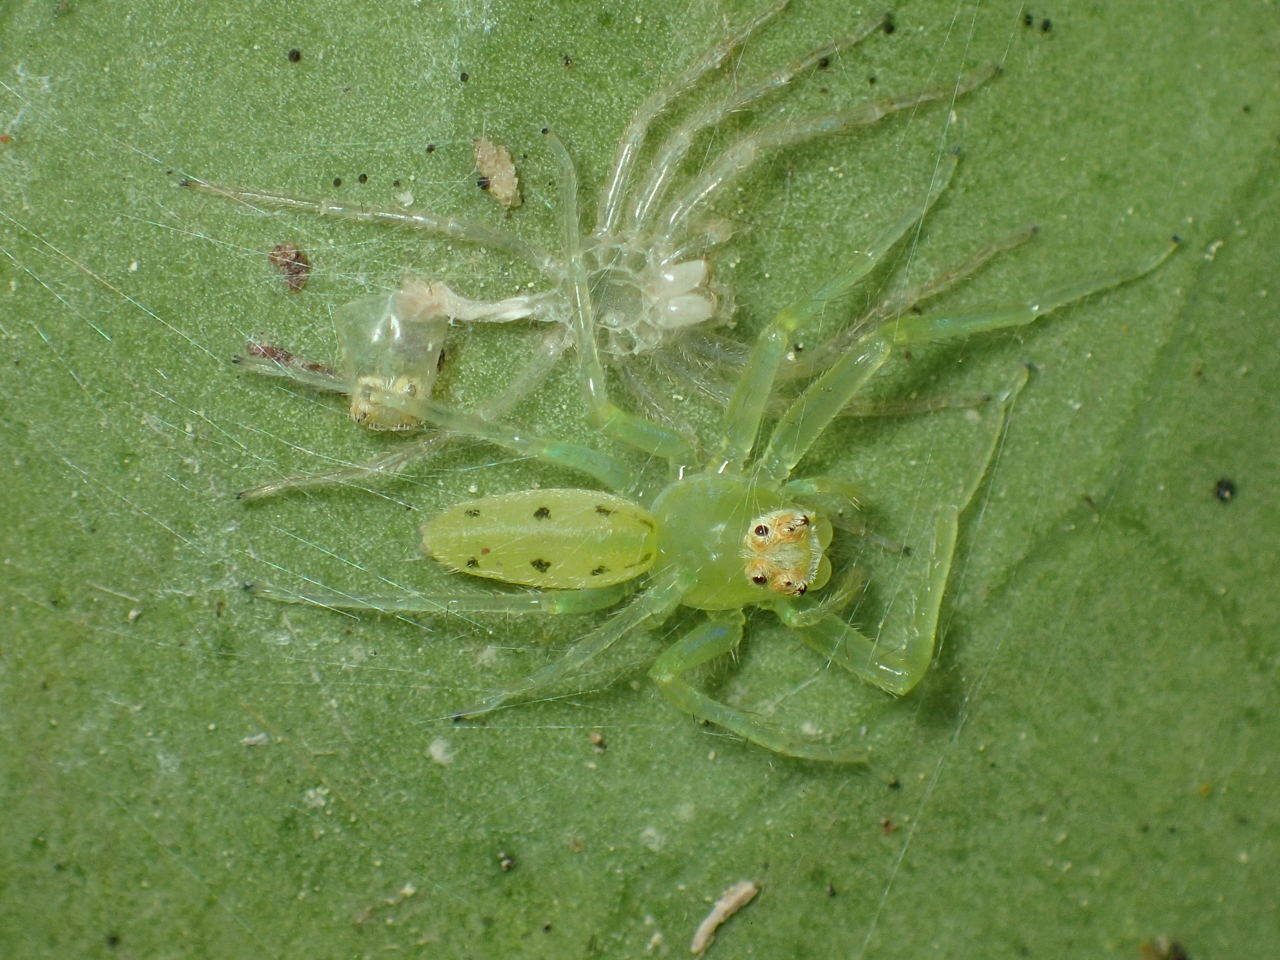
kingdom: Animalia
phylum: Arthropoda
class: Arachnida
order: Araneae
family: Salticidae
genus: Lyssomanes
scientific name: Lyssomanes viridis
